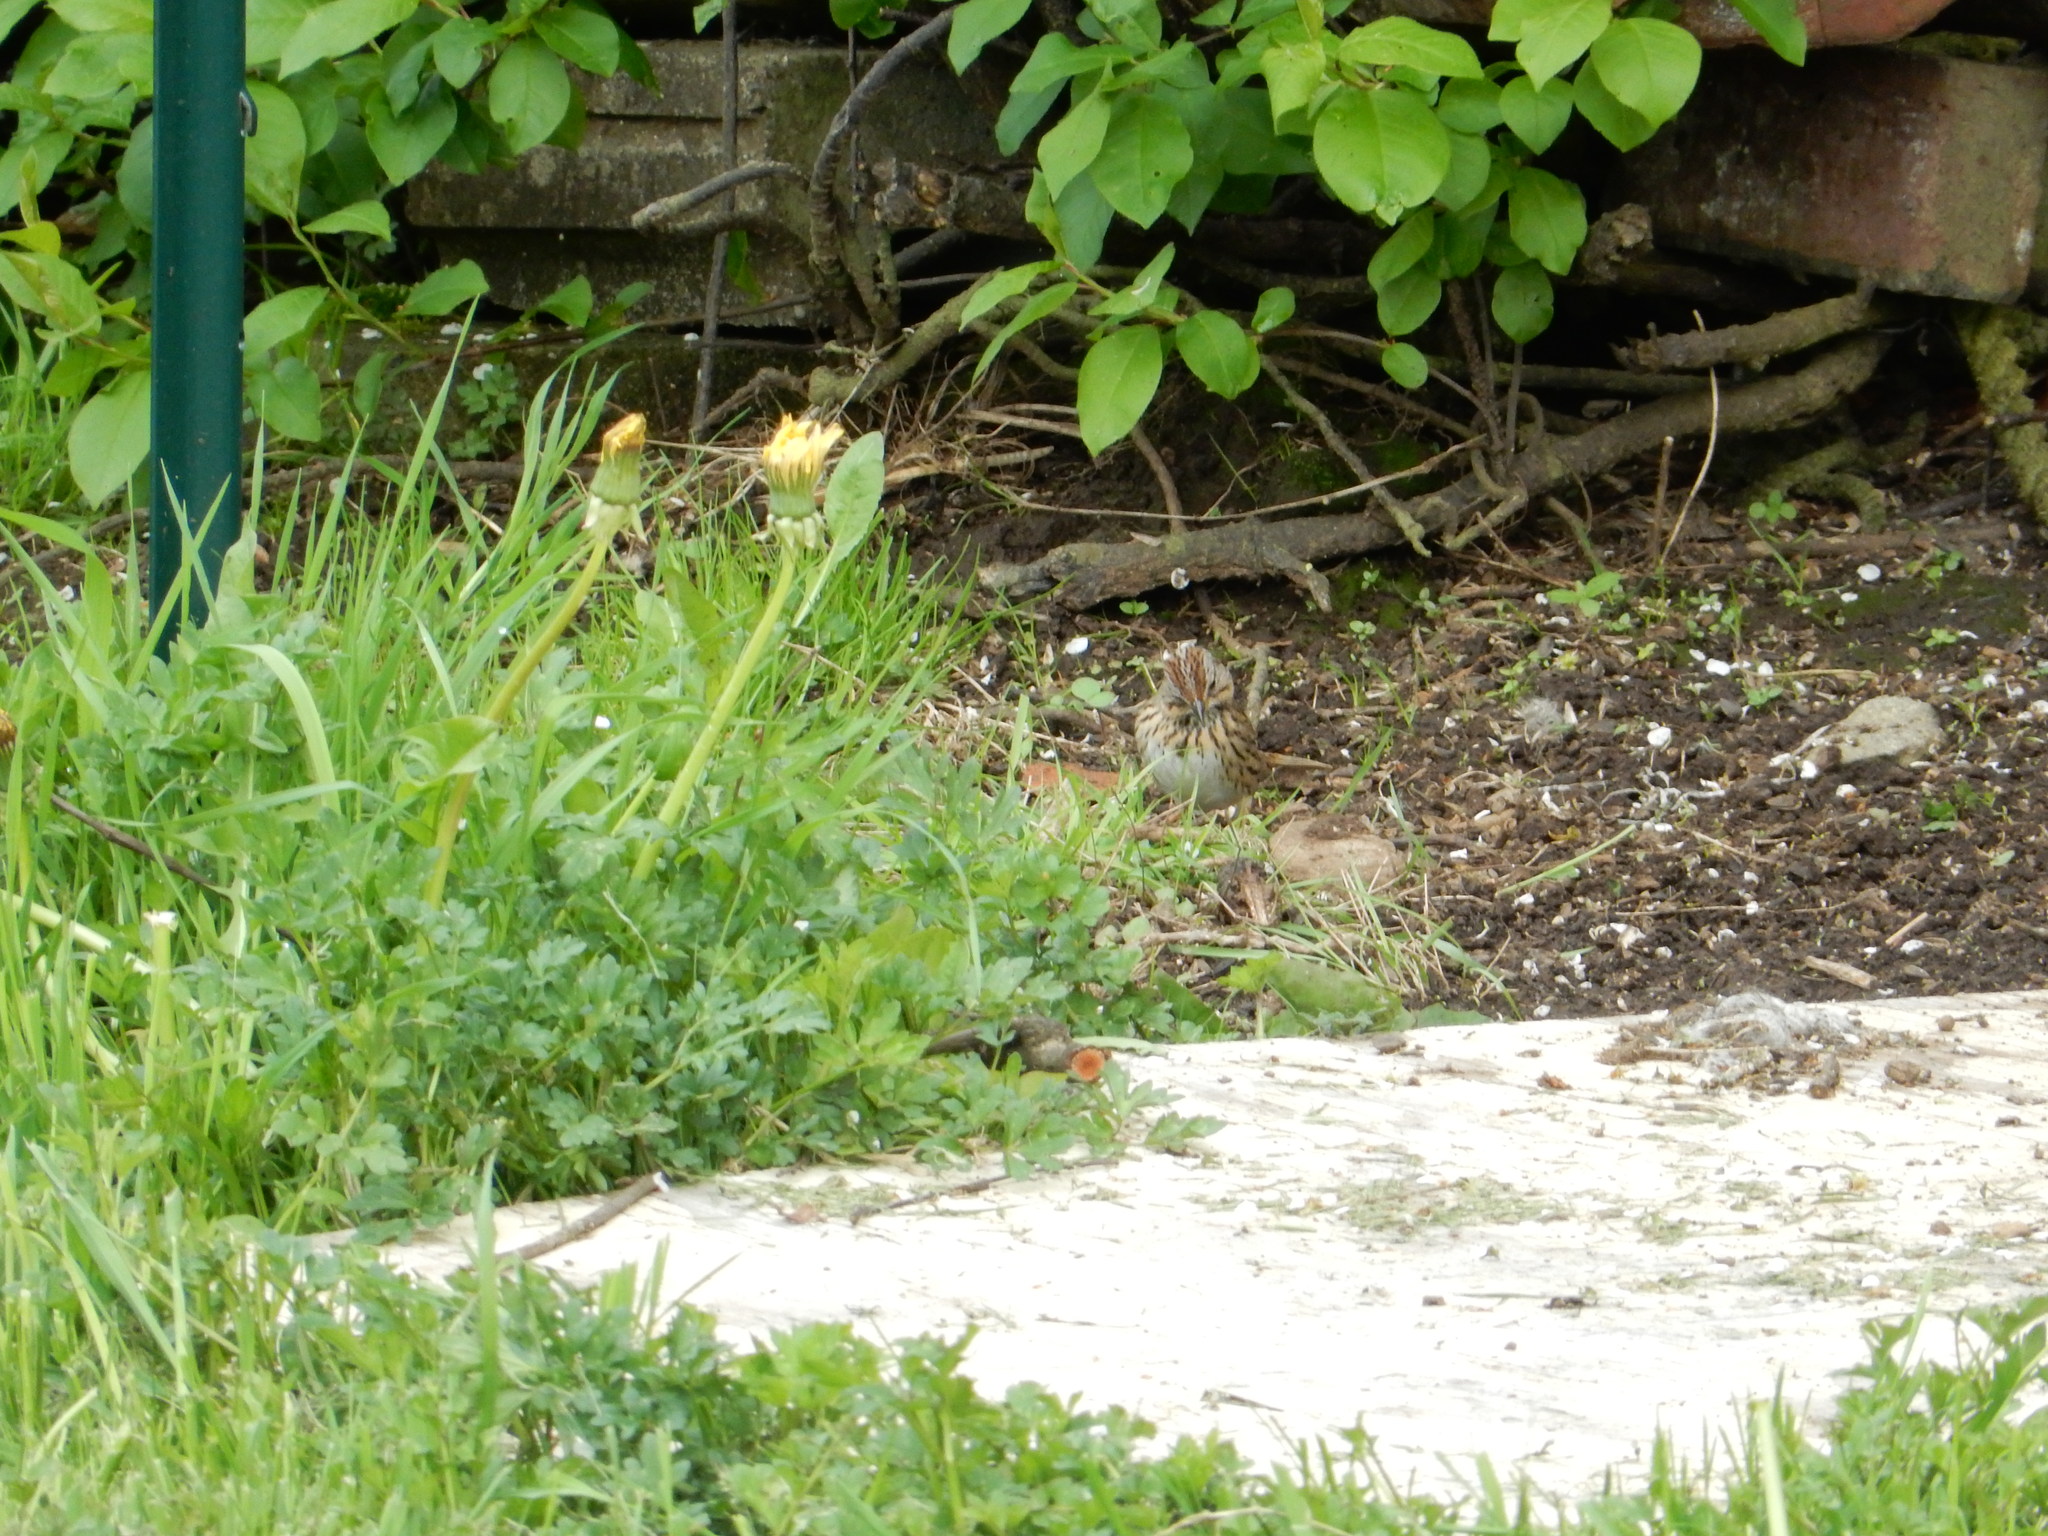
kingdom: Animalia
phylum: Chordata
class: Aves
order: Passeriformes
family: Passerellidae
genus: Melospiza
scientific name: Melospiza lincolnii
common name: Lincoln's sparrow
